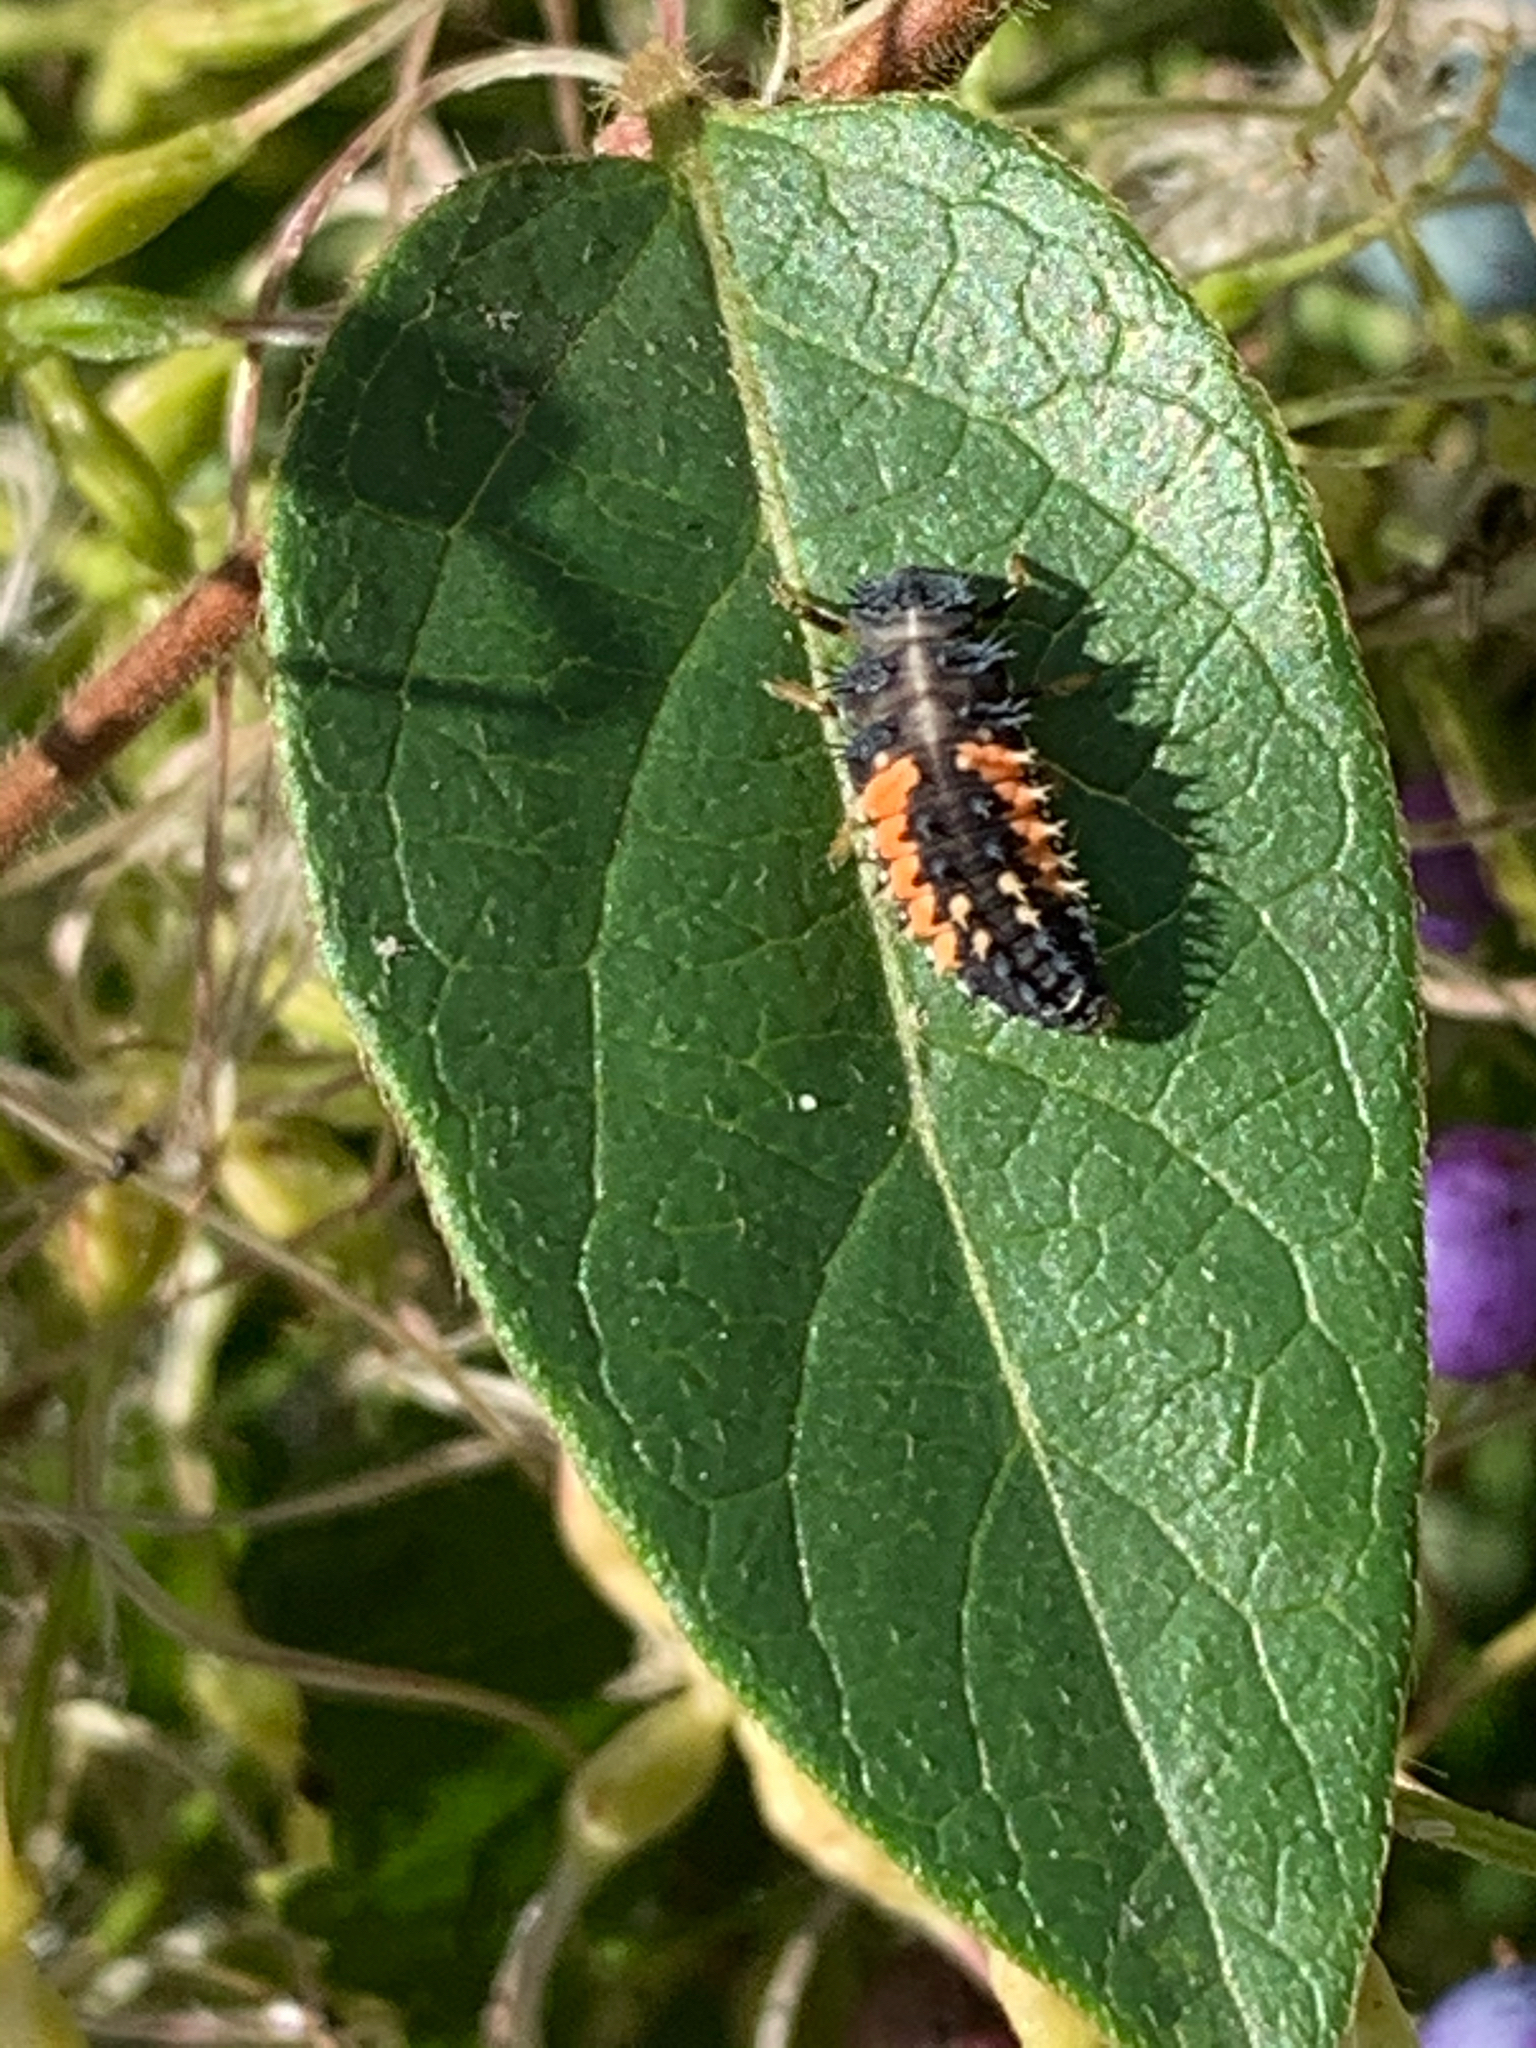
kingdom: Animalia
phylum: Arthropoda
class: Insecta
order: Coleoptera
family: Coccinellidae
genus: Harmonia
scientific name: Harmonia axyridis
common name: Harlequin ladybird
